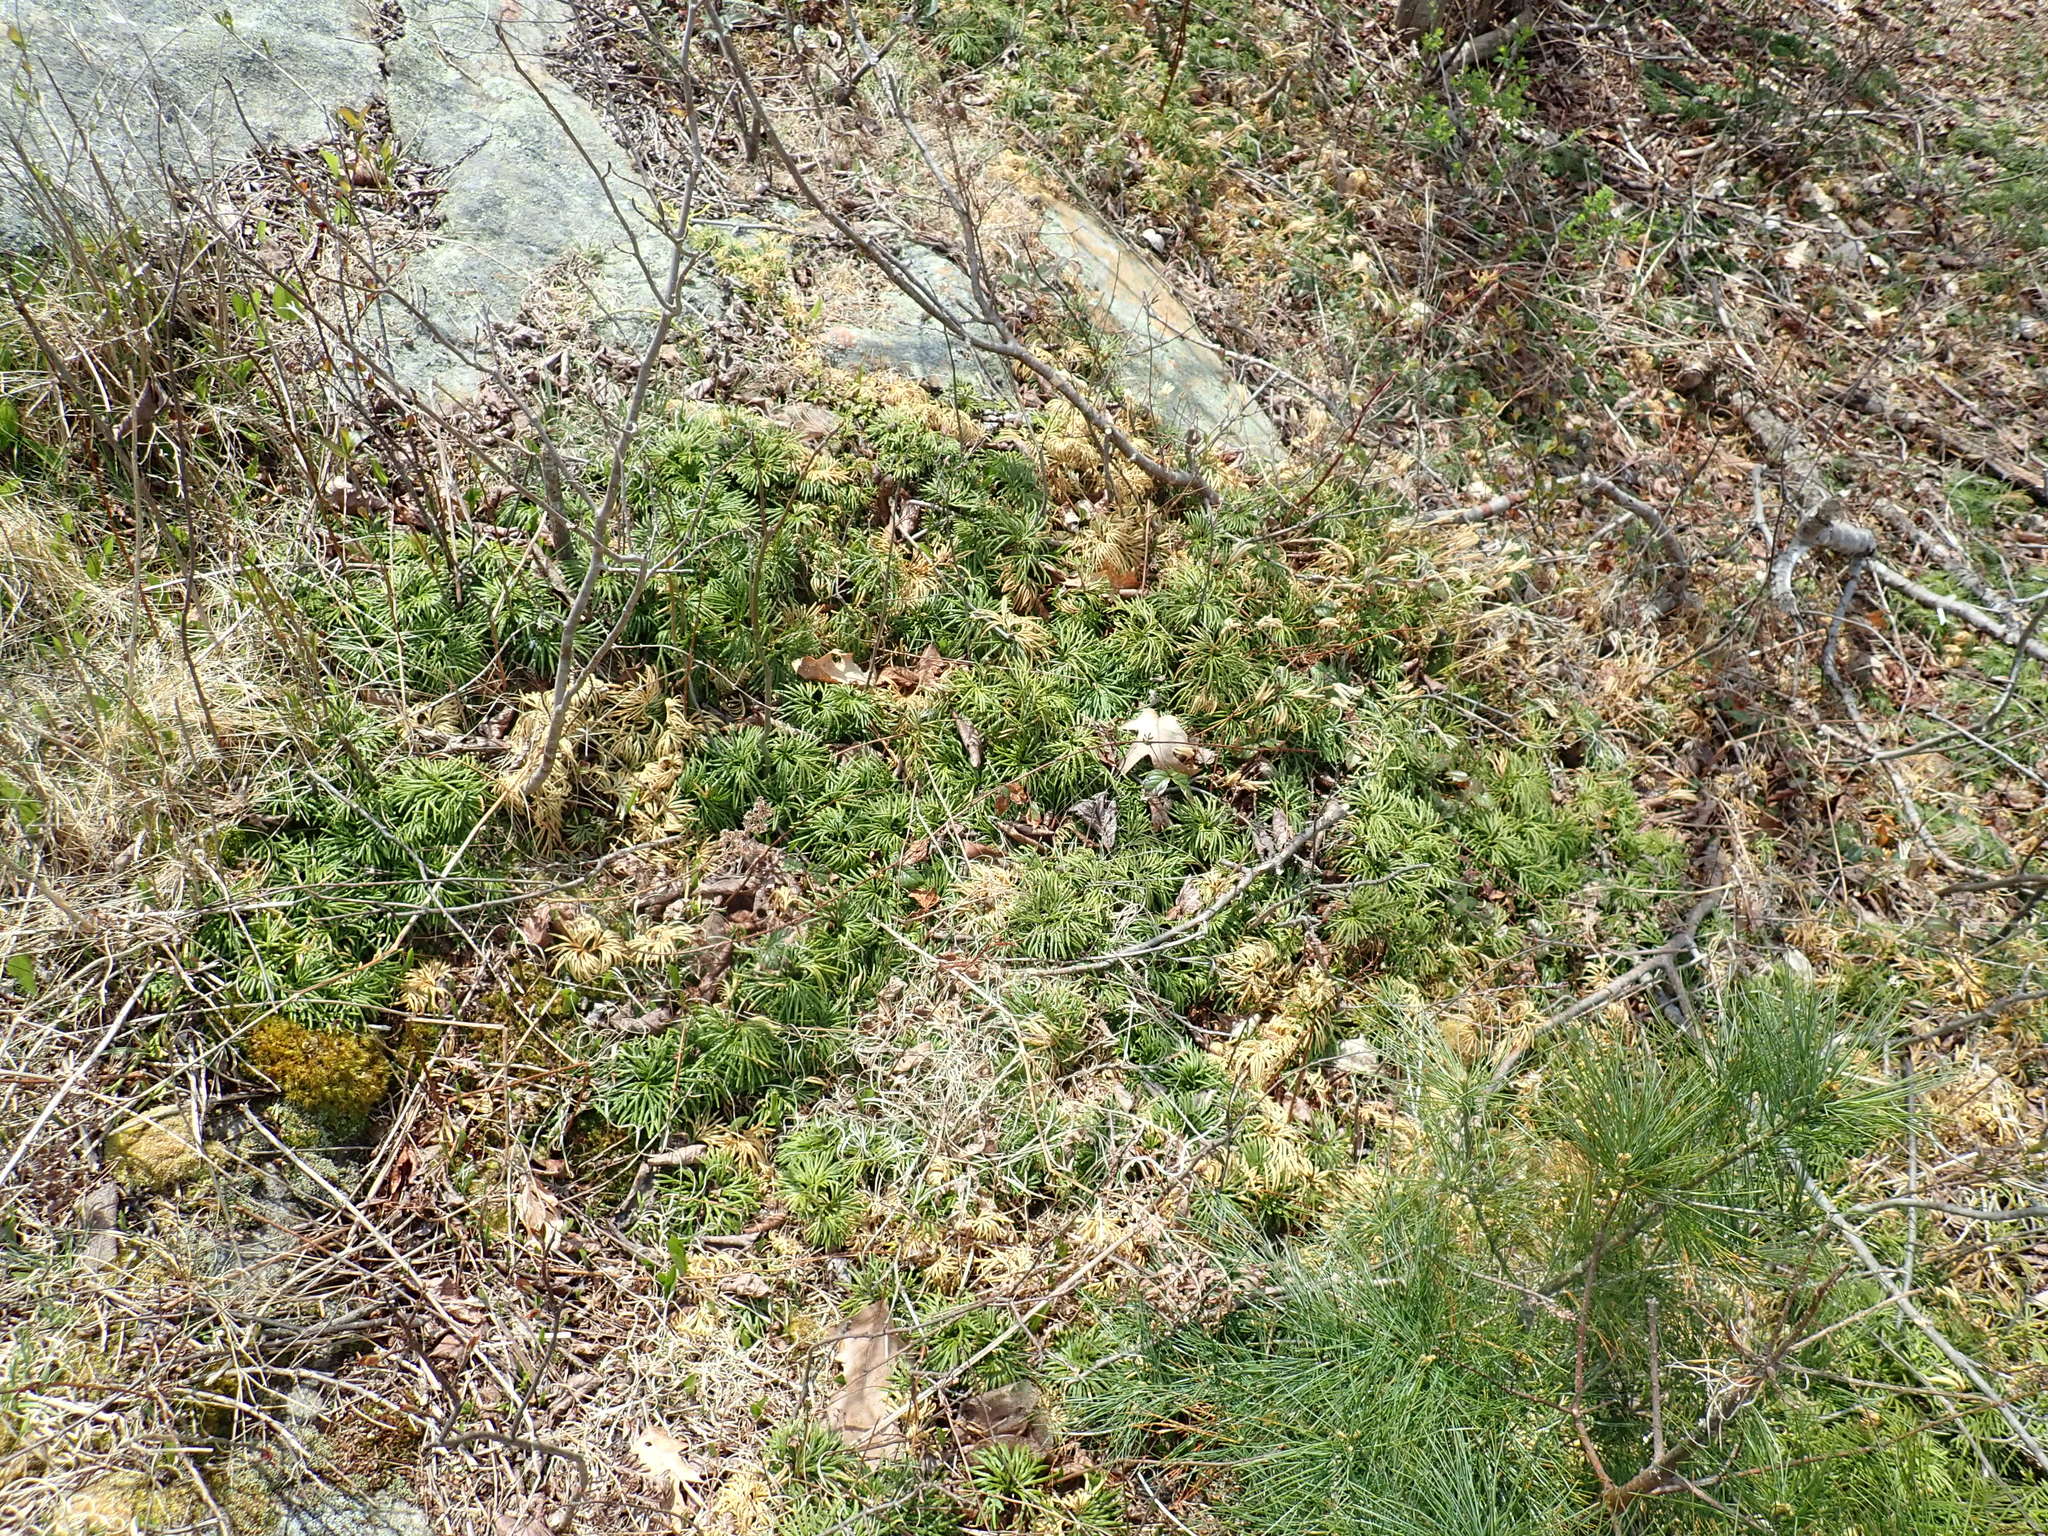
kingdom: Plantae
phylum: Tracheophyta
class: Lycopodiopsida
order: Lycopodiales
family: Lycopodiaceae
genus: Diphasiastrum
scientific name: Diphasiastrum digitatum
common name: Southern running-pine
